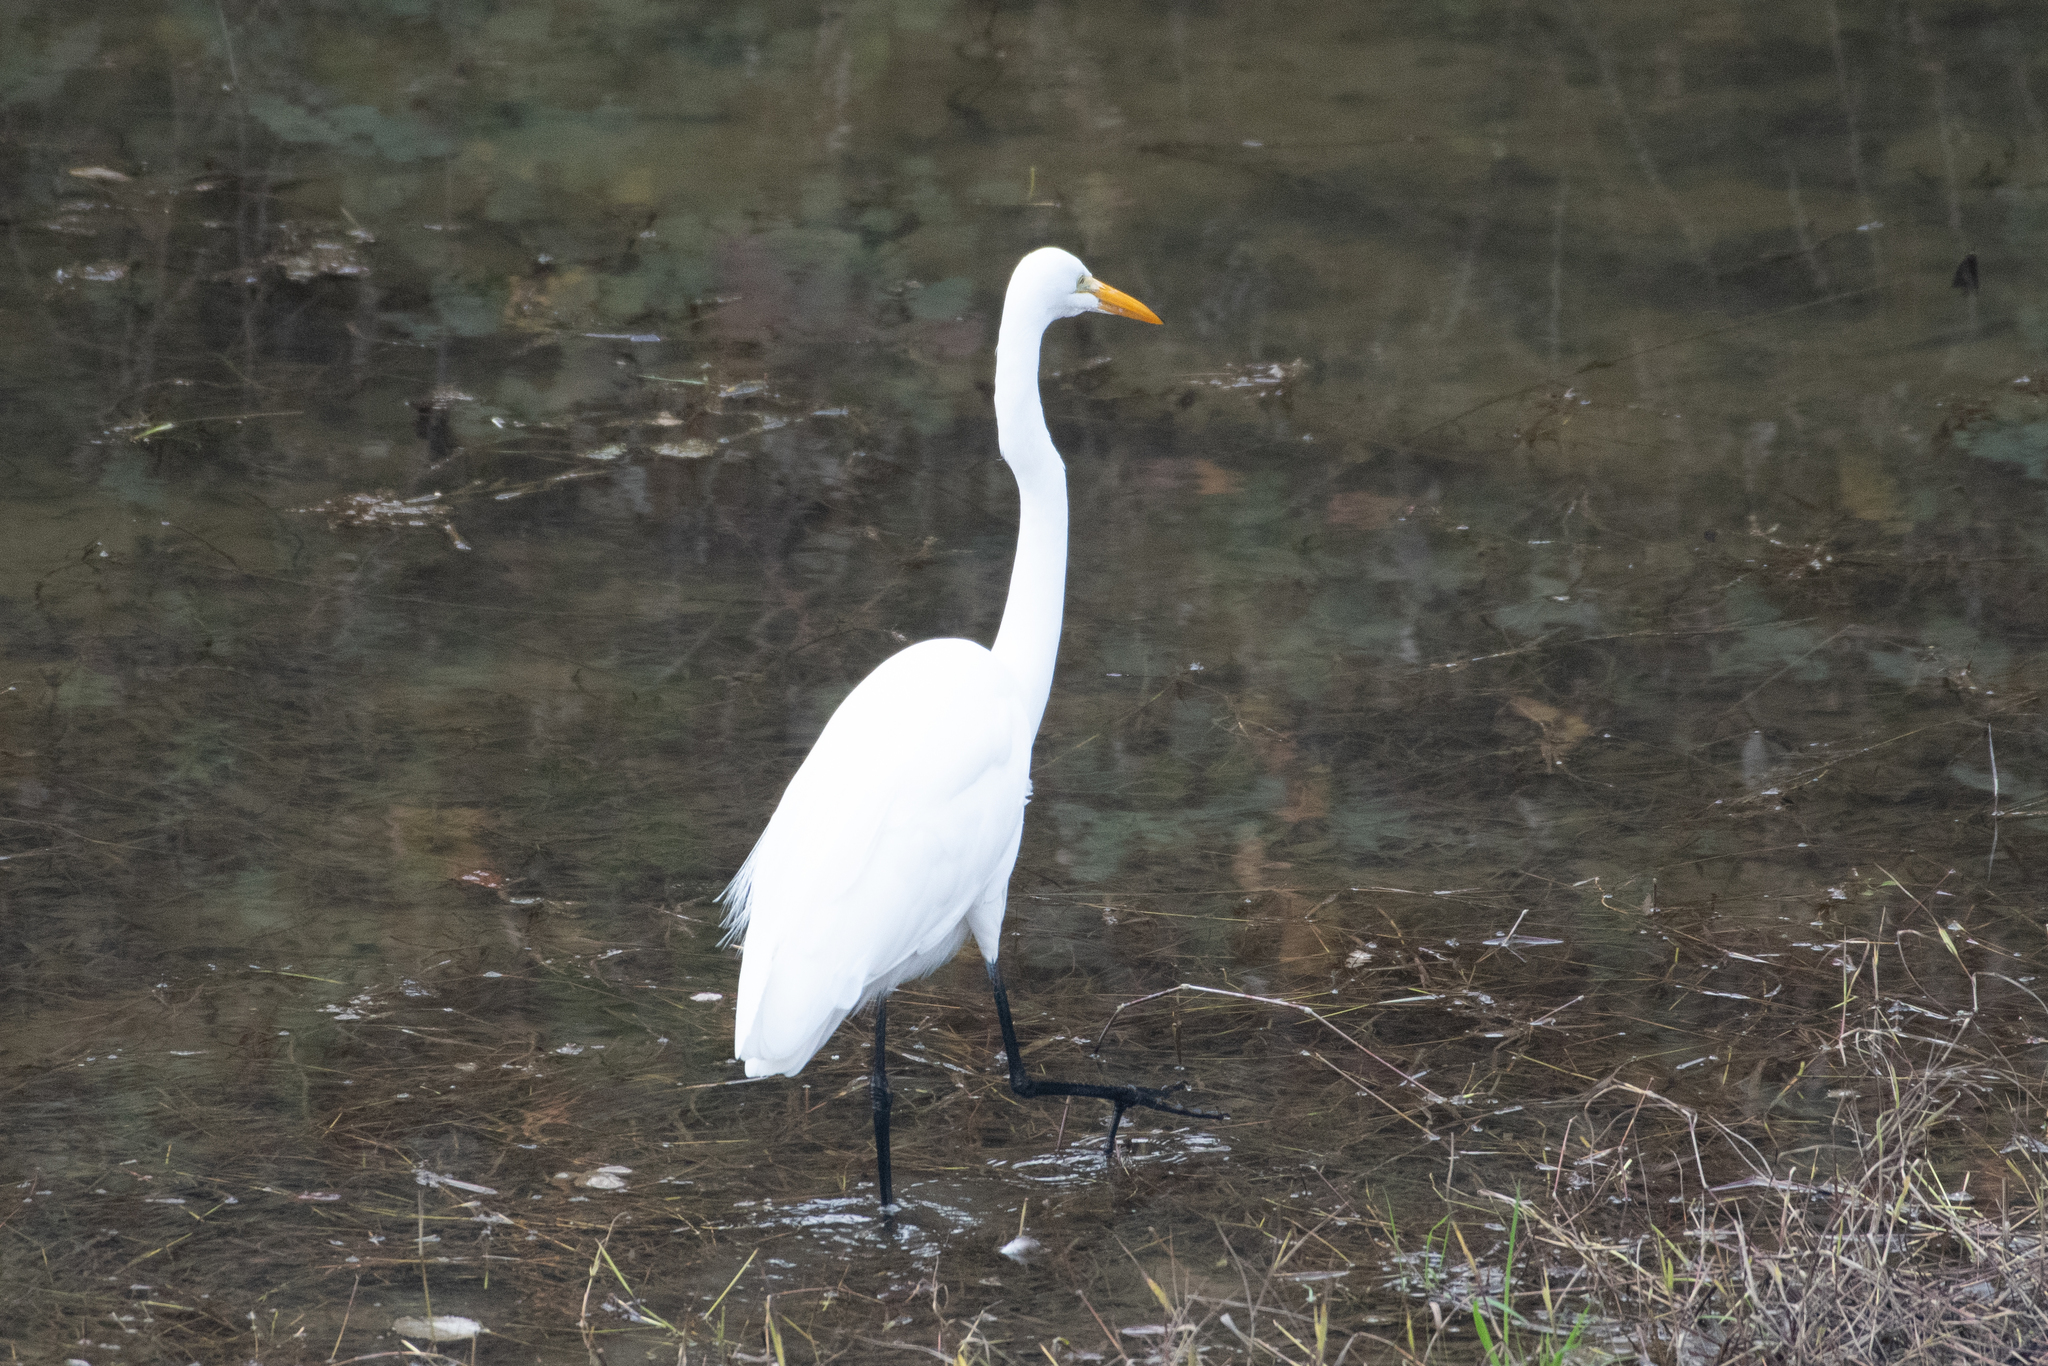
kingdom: Animalia
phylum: Chordata
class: Aves
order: Pelecaniformes
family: Ardeidae
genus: Ardea
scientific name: Ardea alba
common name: Great egret
